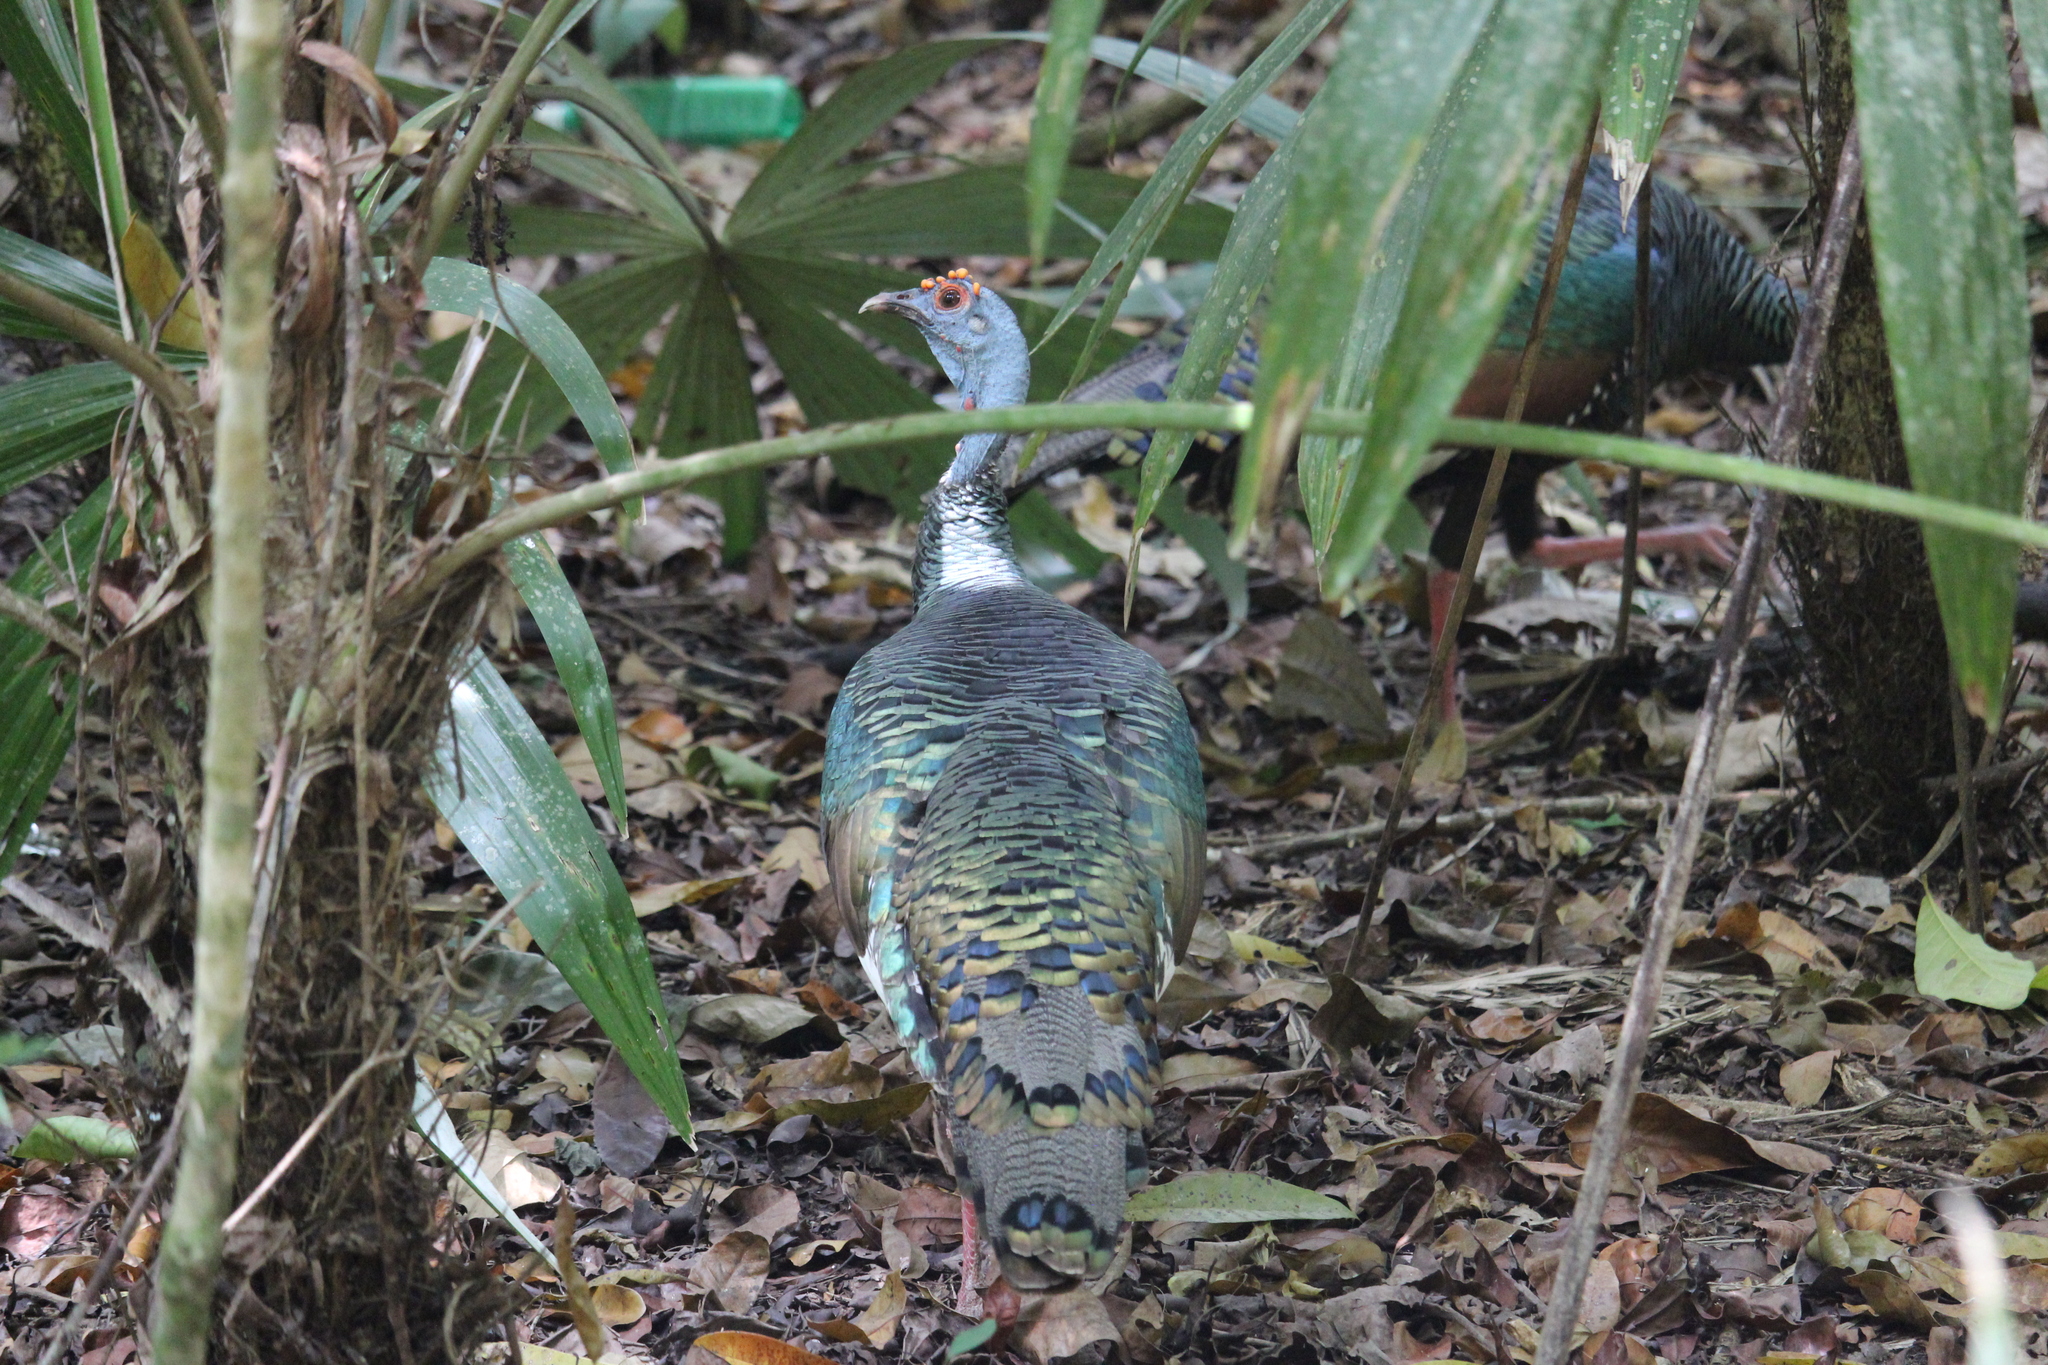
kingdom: Animalia
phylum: Chordata
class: Aves
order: Galliformes
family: Phasianidae
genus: Meleagris
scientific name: Meleagris ocellata
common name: Ocellated turkey
